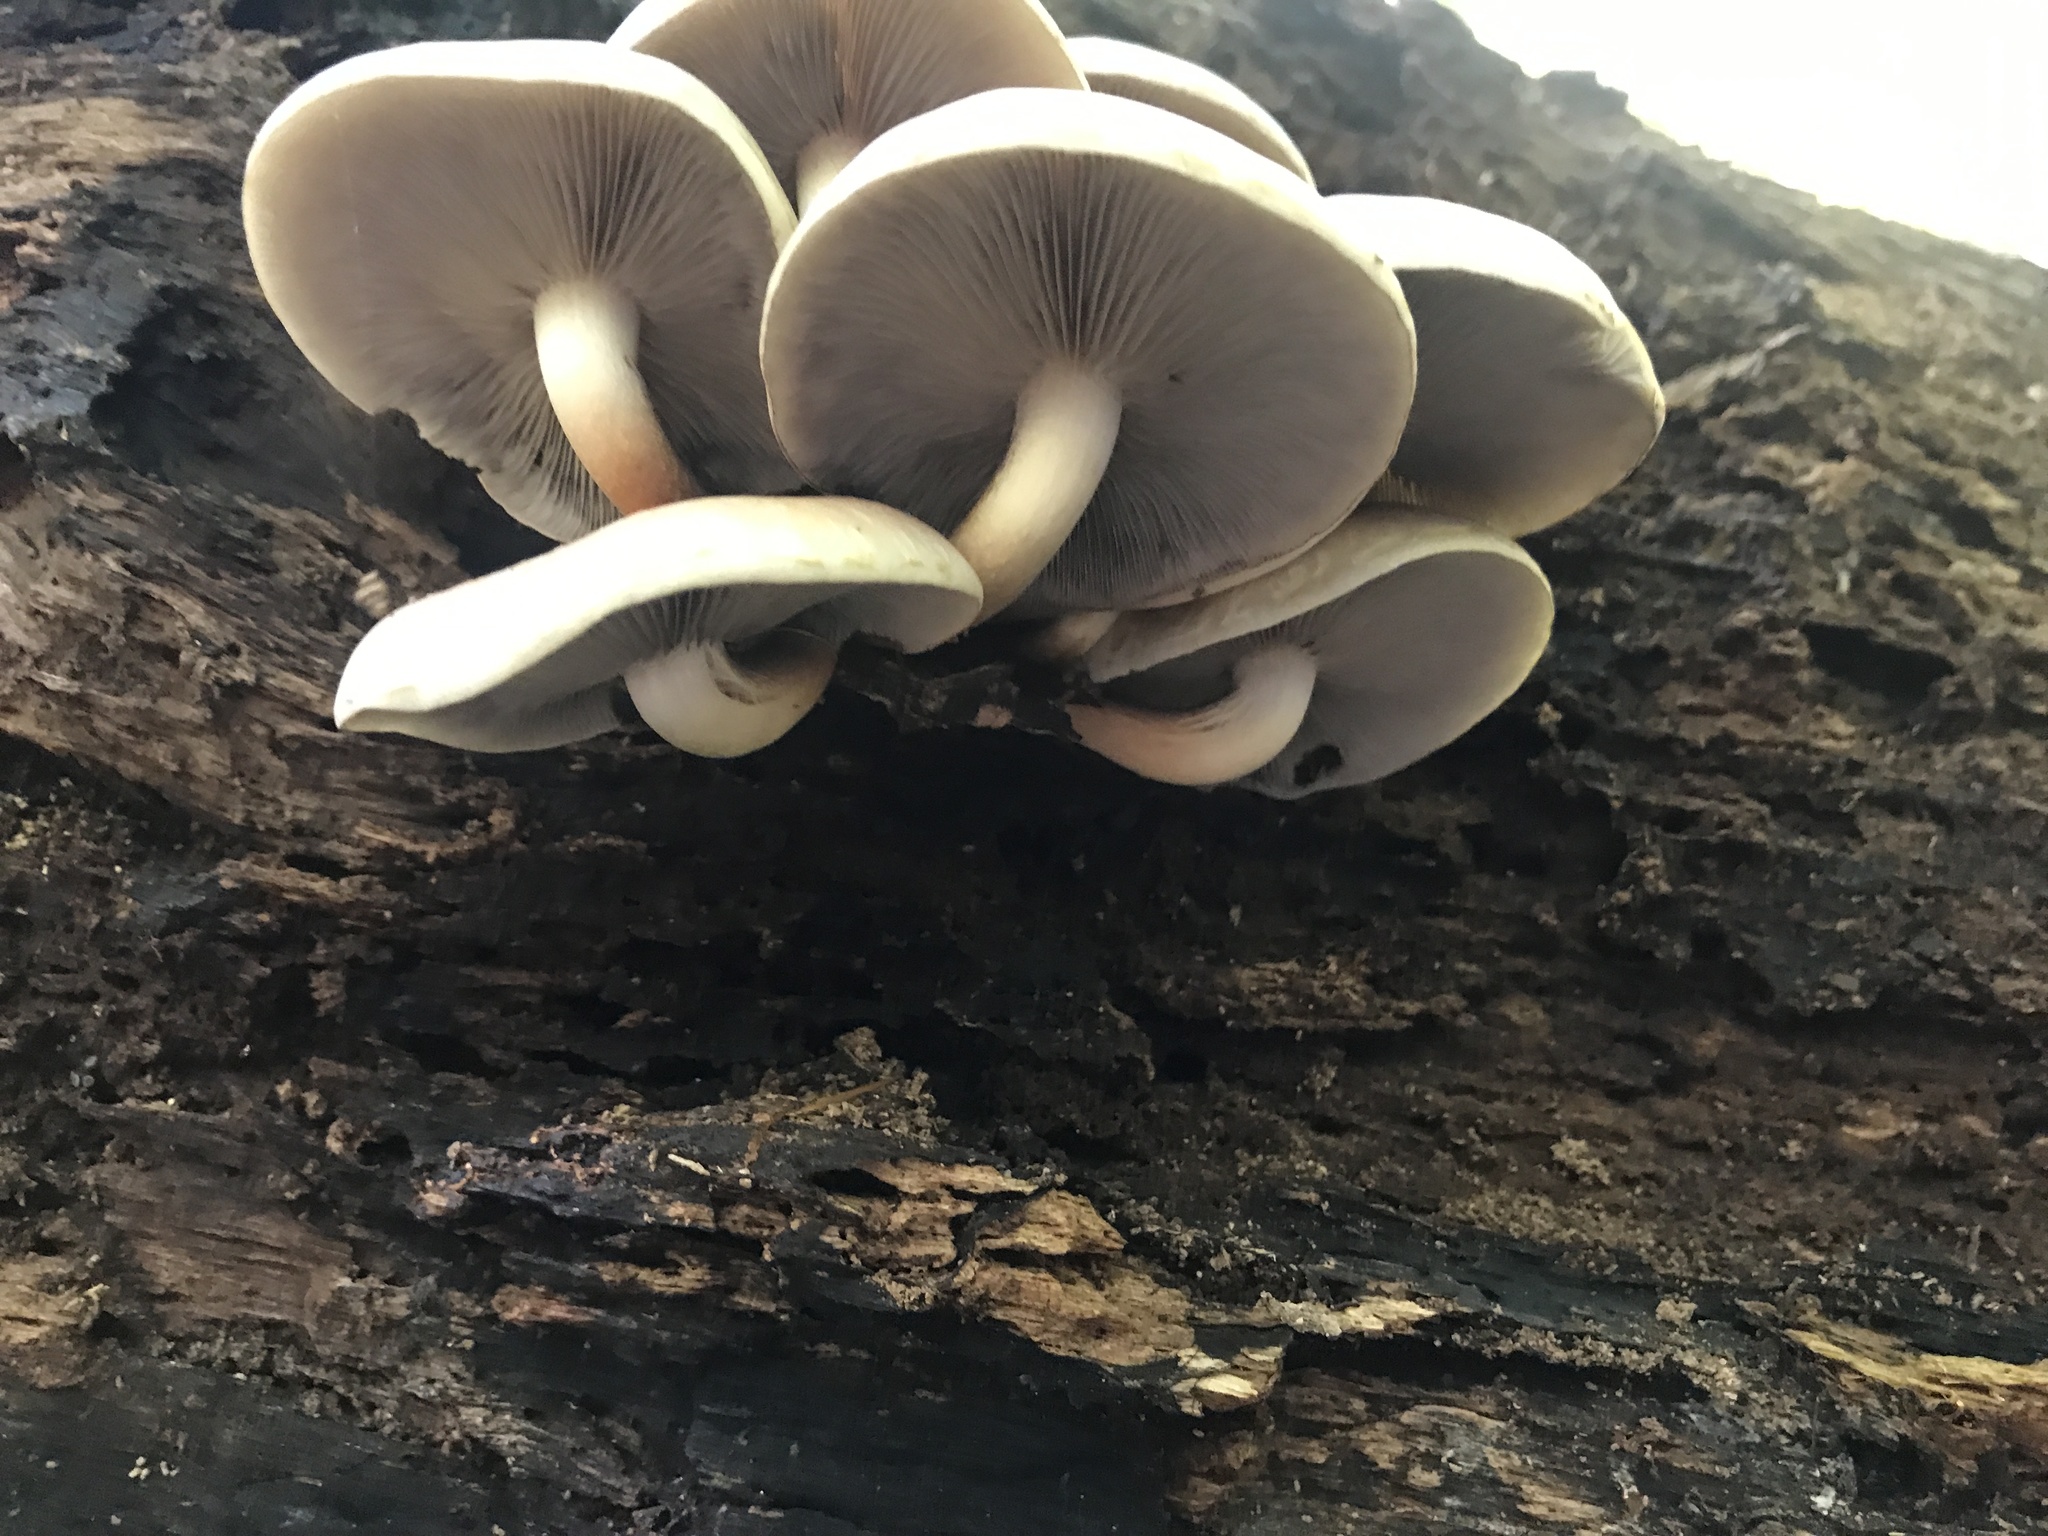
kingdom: Fungi
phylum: Basidiomycota
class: Agaricomycetes
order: Agaricales
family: Strophariaceae
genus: Hypholoma
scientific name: Hypholoma lateritium
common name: Brick caps
